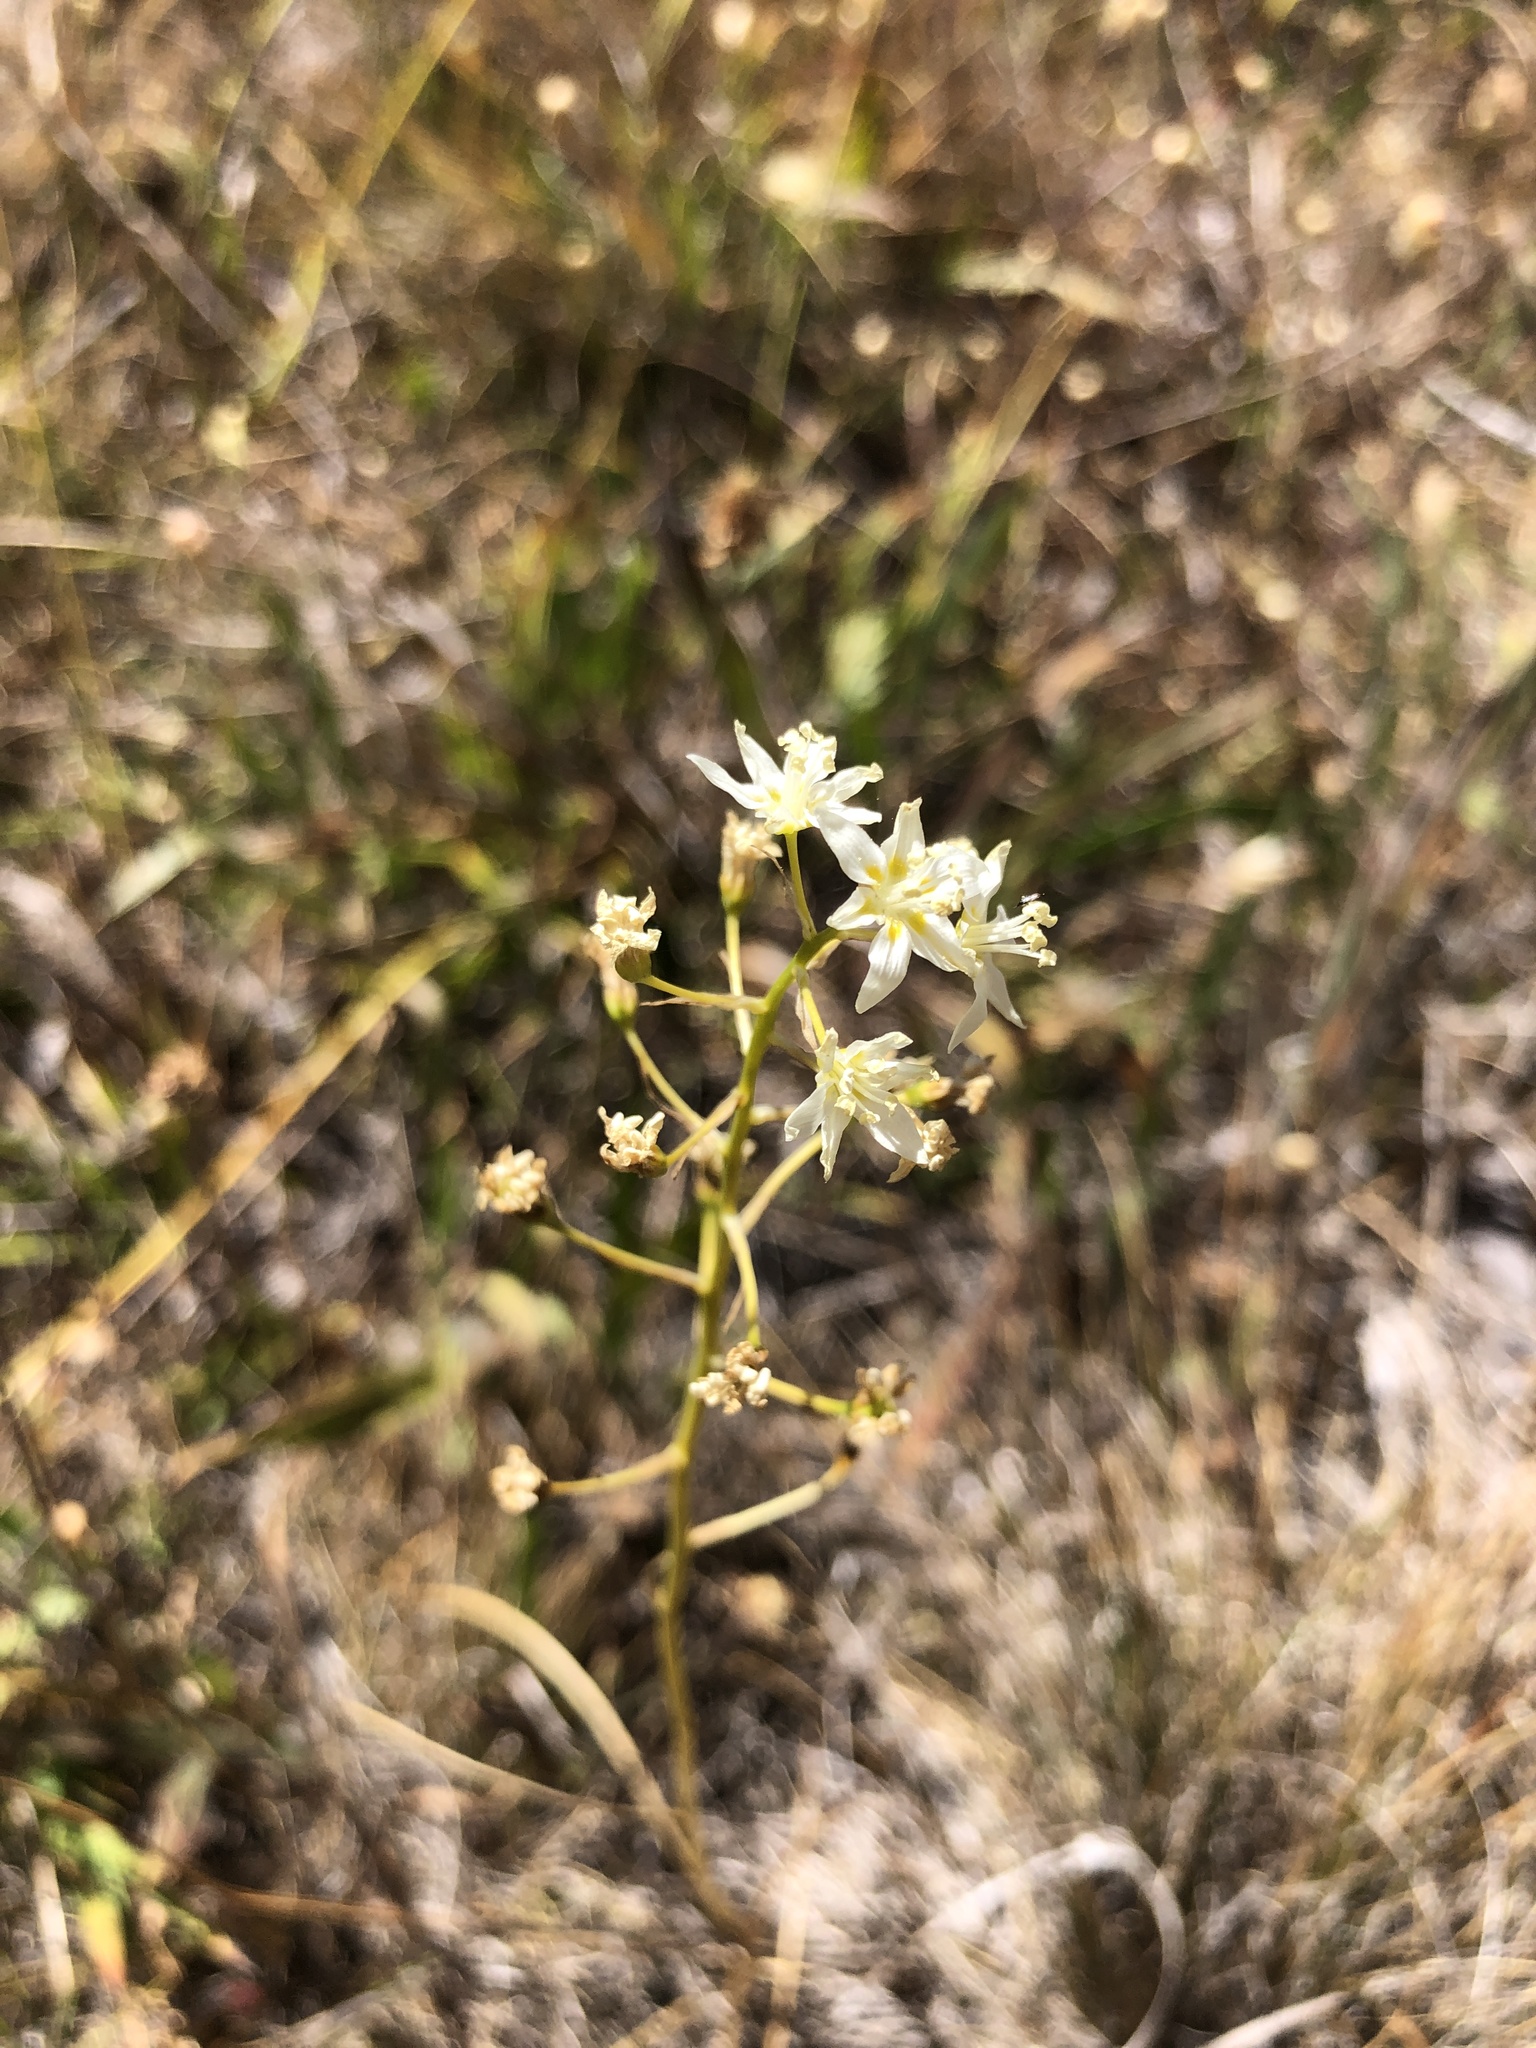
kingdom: Plantae
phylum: Tracheophyta
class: Liliopsida
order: Liliales
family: Melanthiaceae
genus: Toxicoscordion
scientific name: Toxicoscordion fremontii
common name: Fremont's death camas
